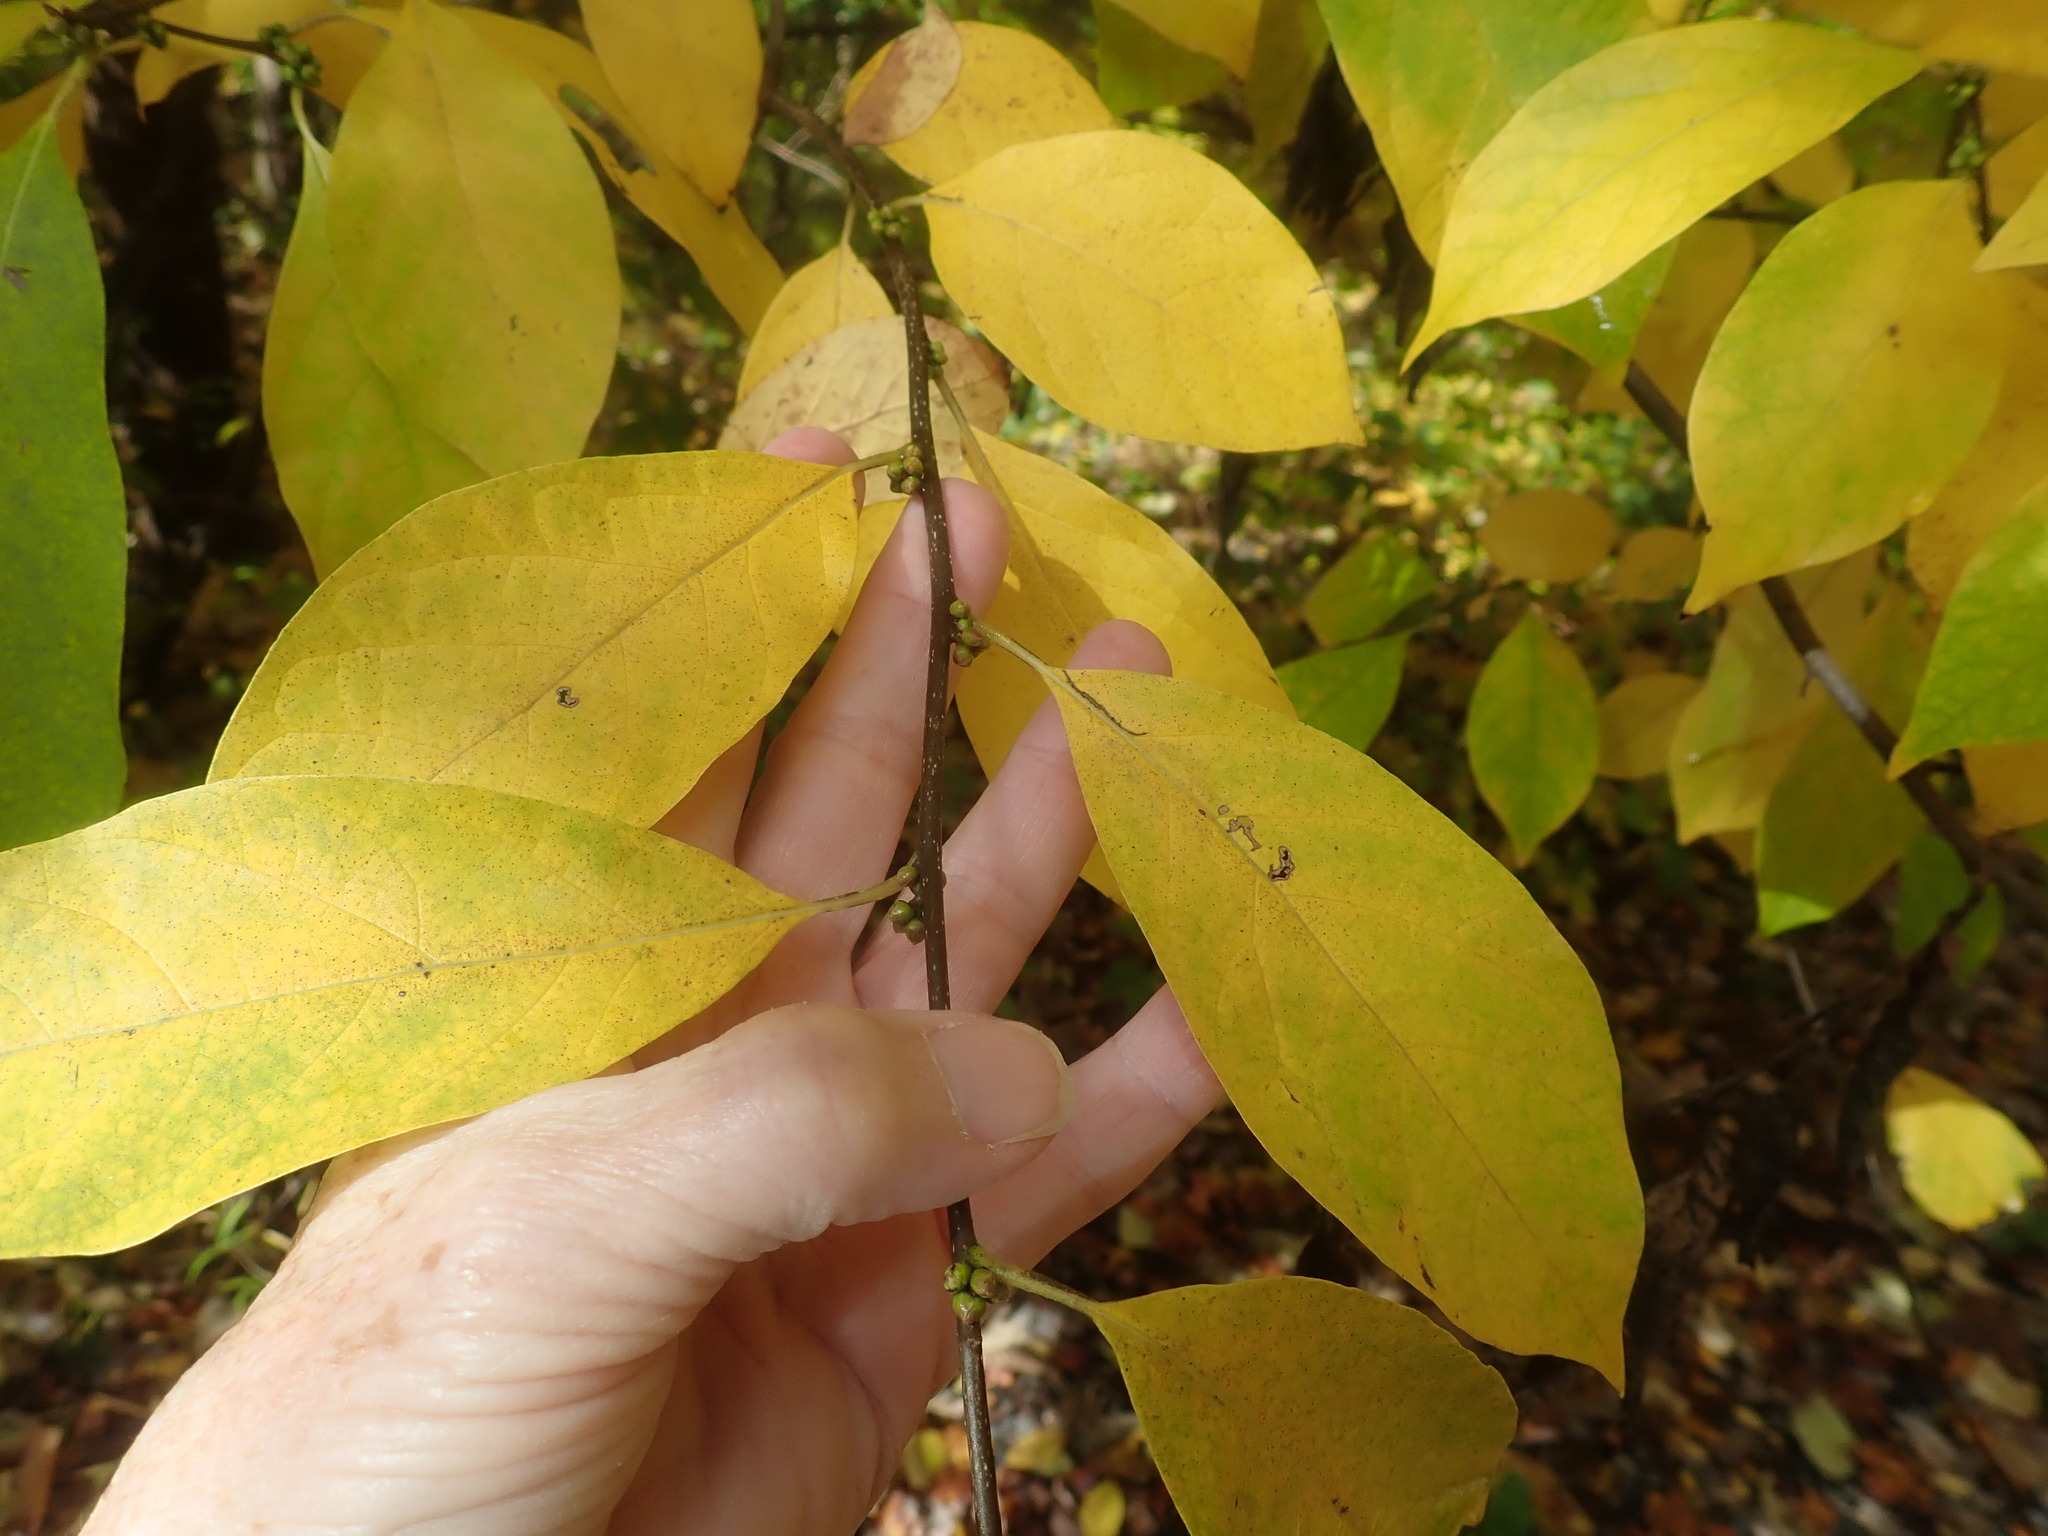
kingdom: Plantae
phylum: Tracheophyta
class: Magnoliopsida
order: Laurales
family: Lauraceae
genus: Lindera
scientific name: Lindera benzoin
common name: Spicebush
